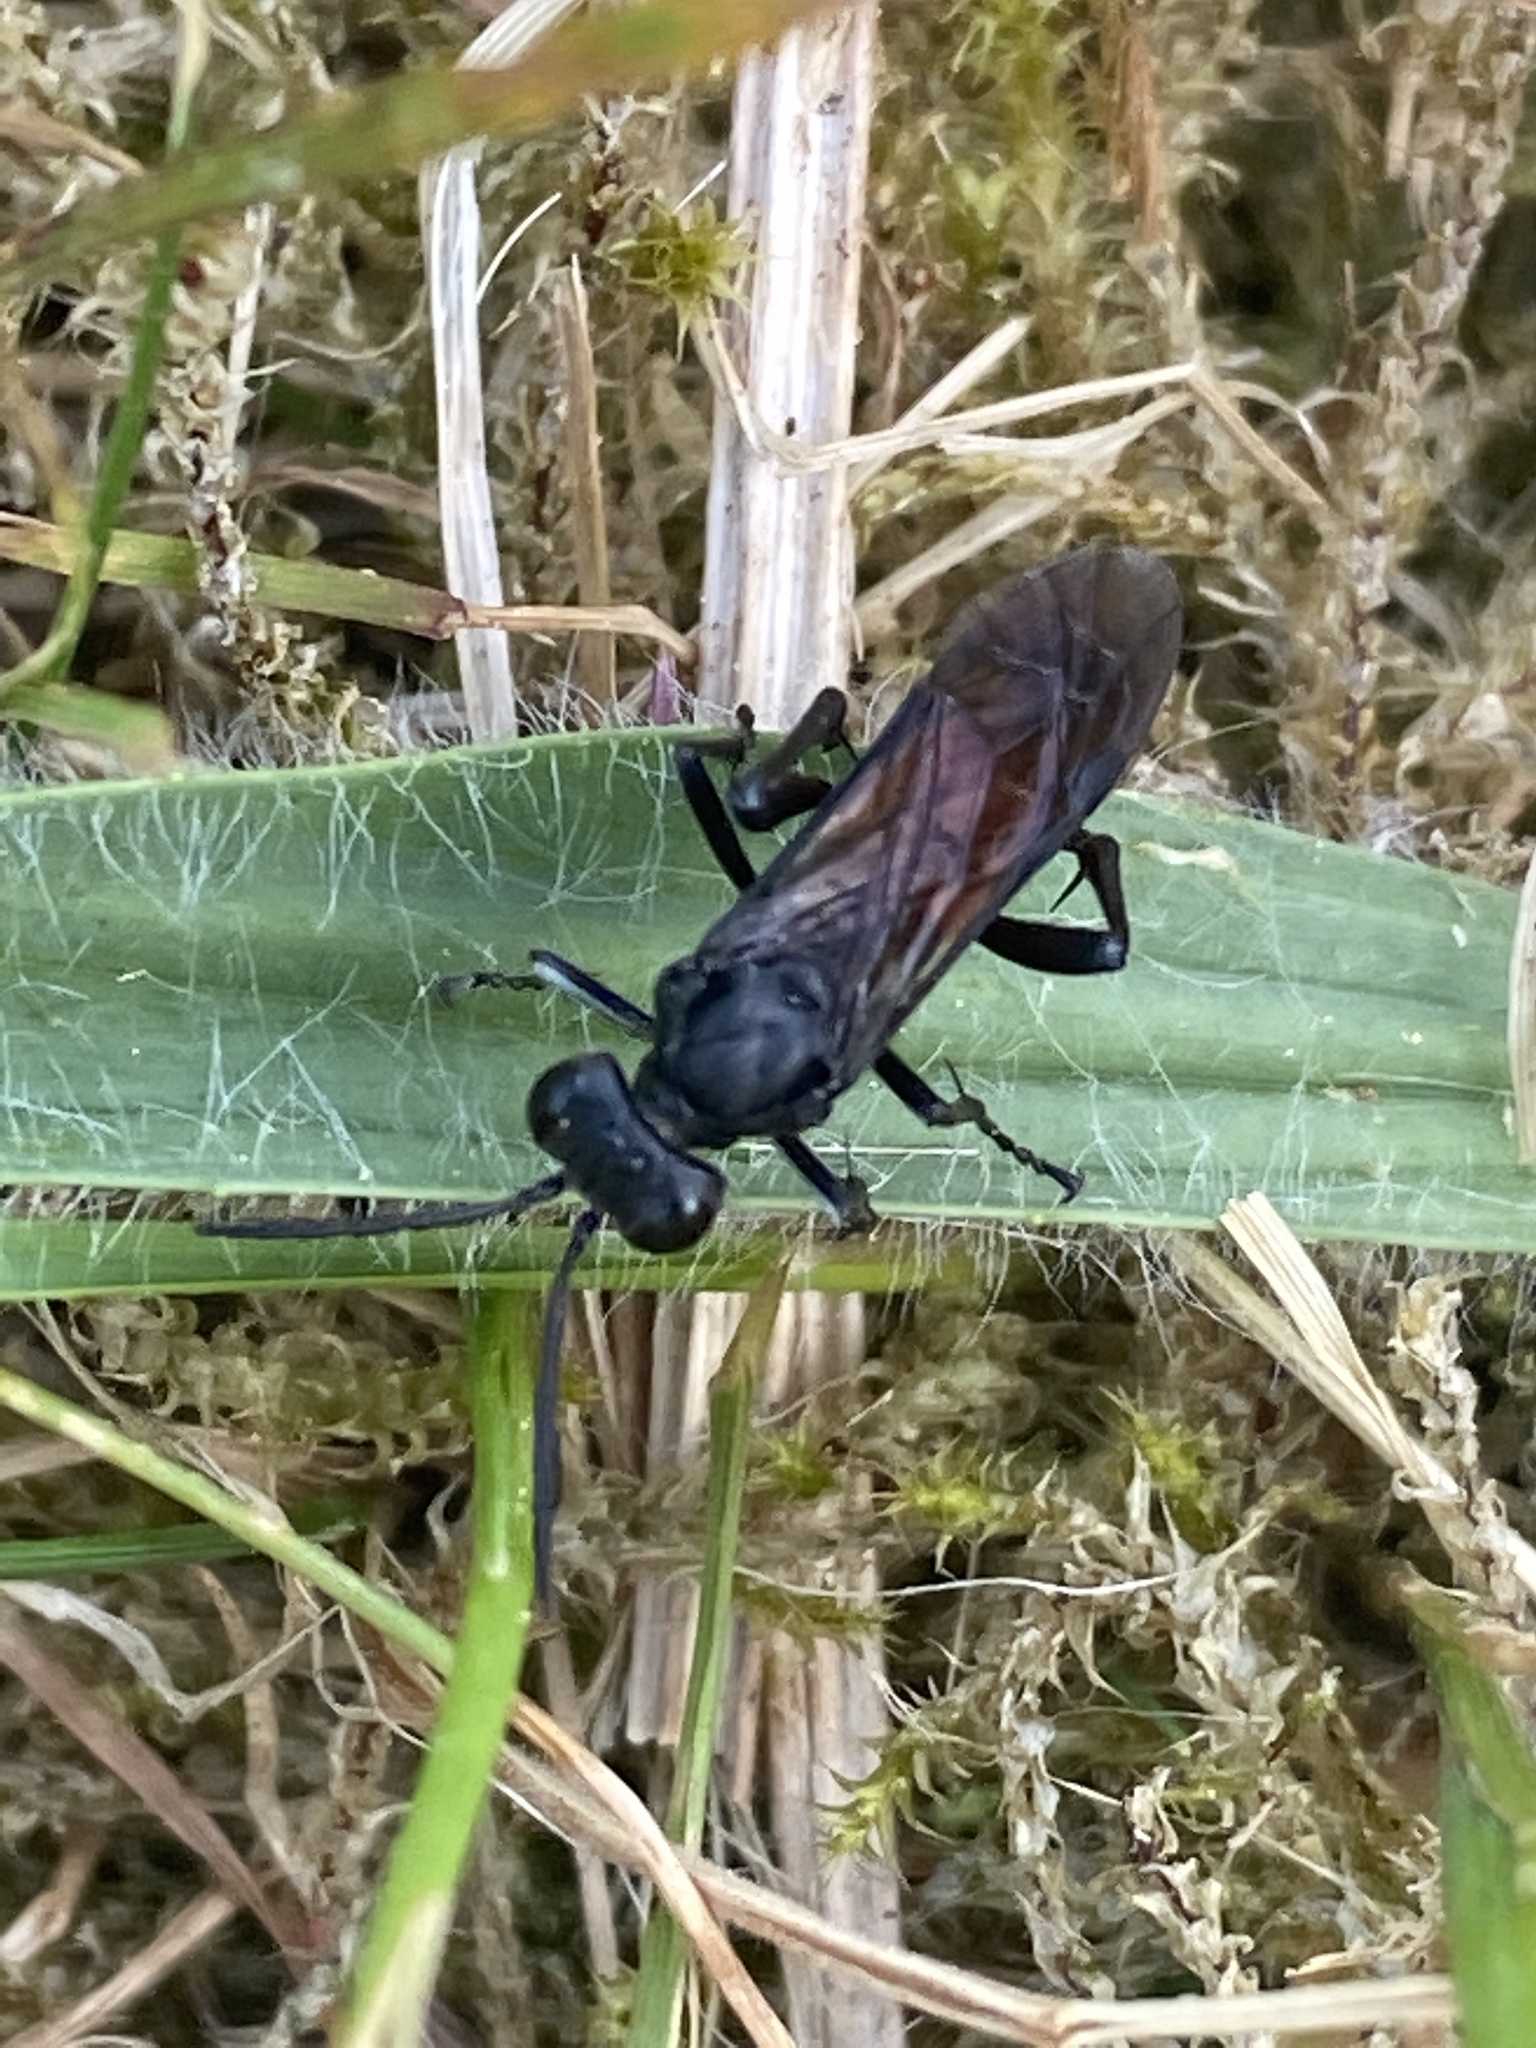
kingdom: Animalia
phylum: Arthropoda
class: Insecta
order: Hymenoptera
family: Tenthredinidae
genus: Macrophya
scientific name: Macrophya annulata
